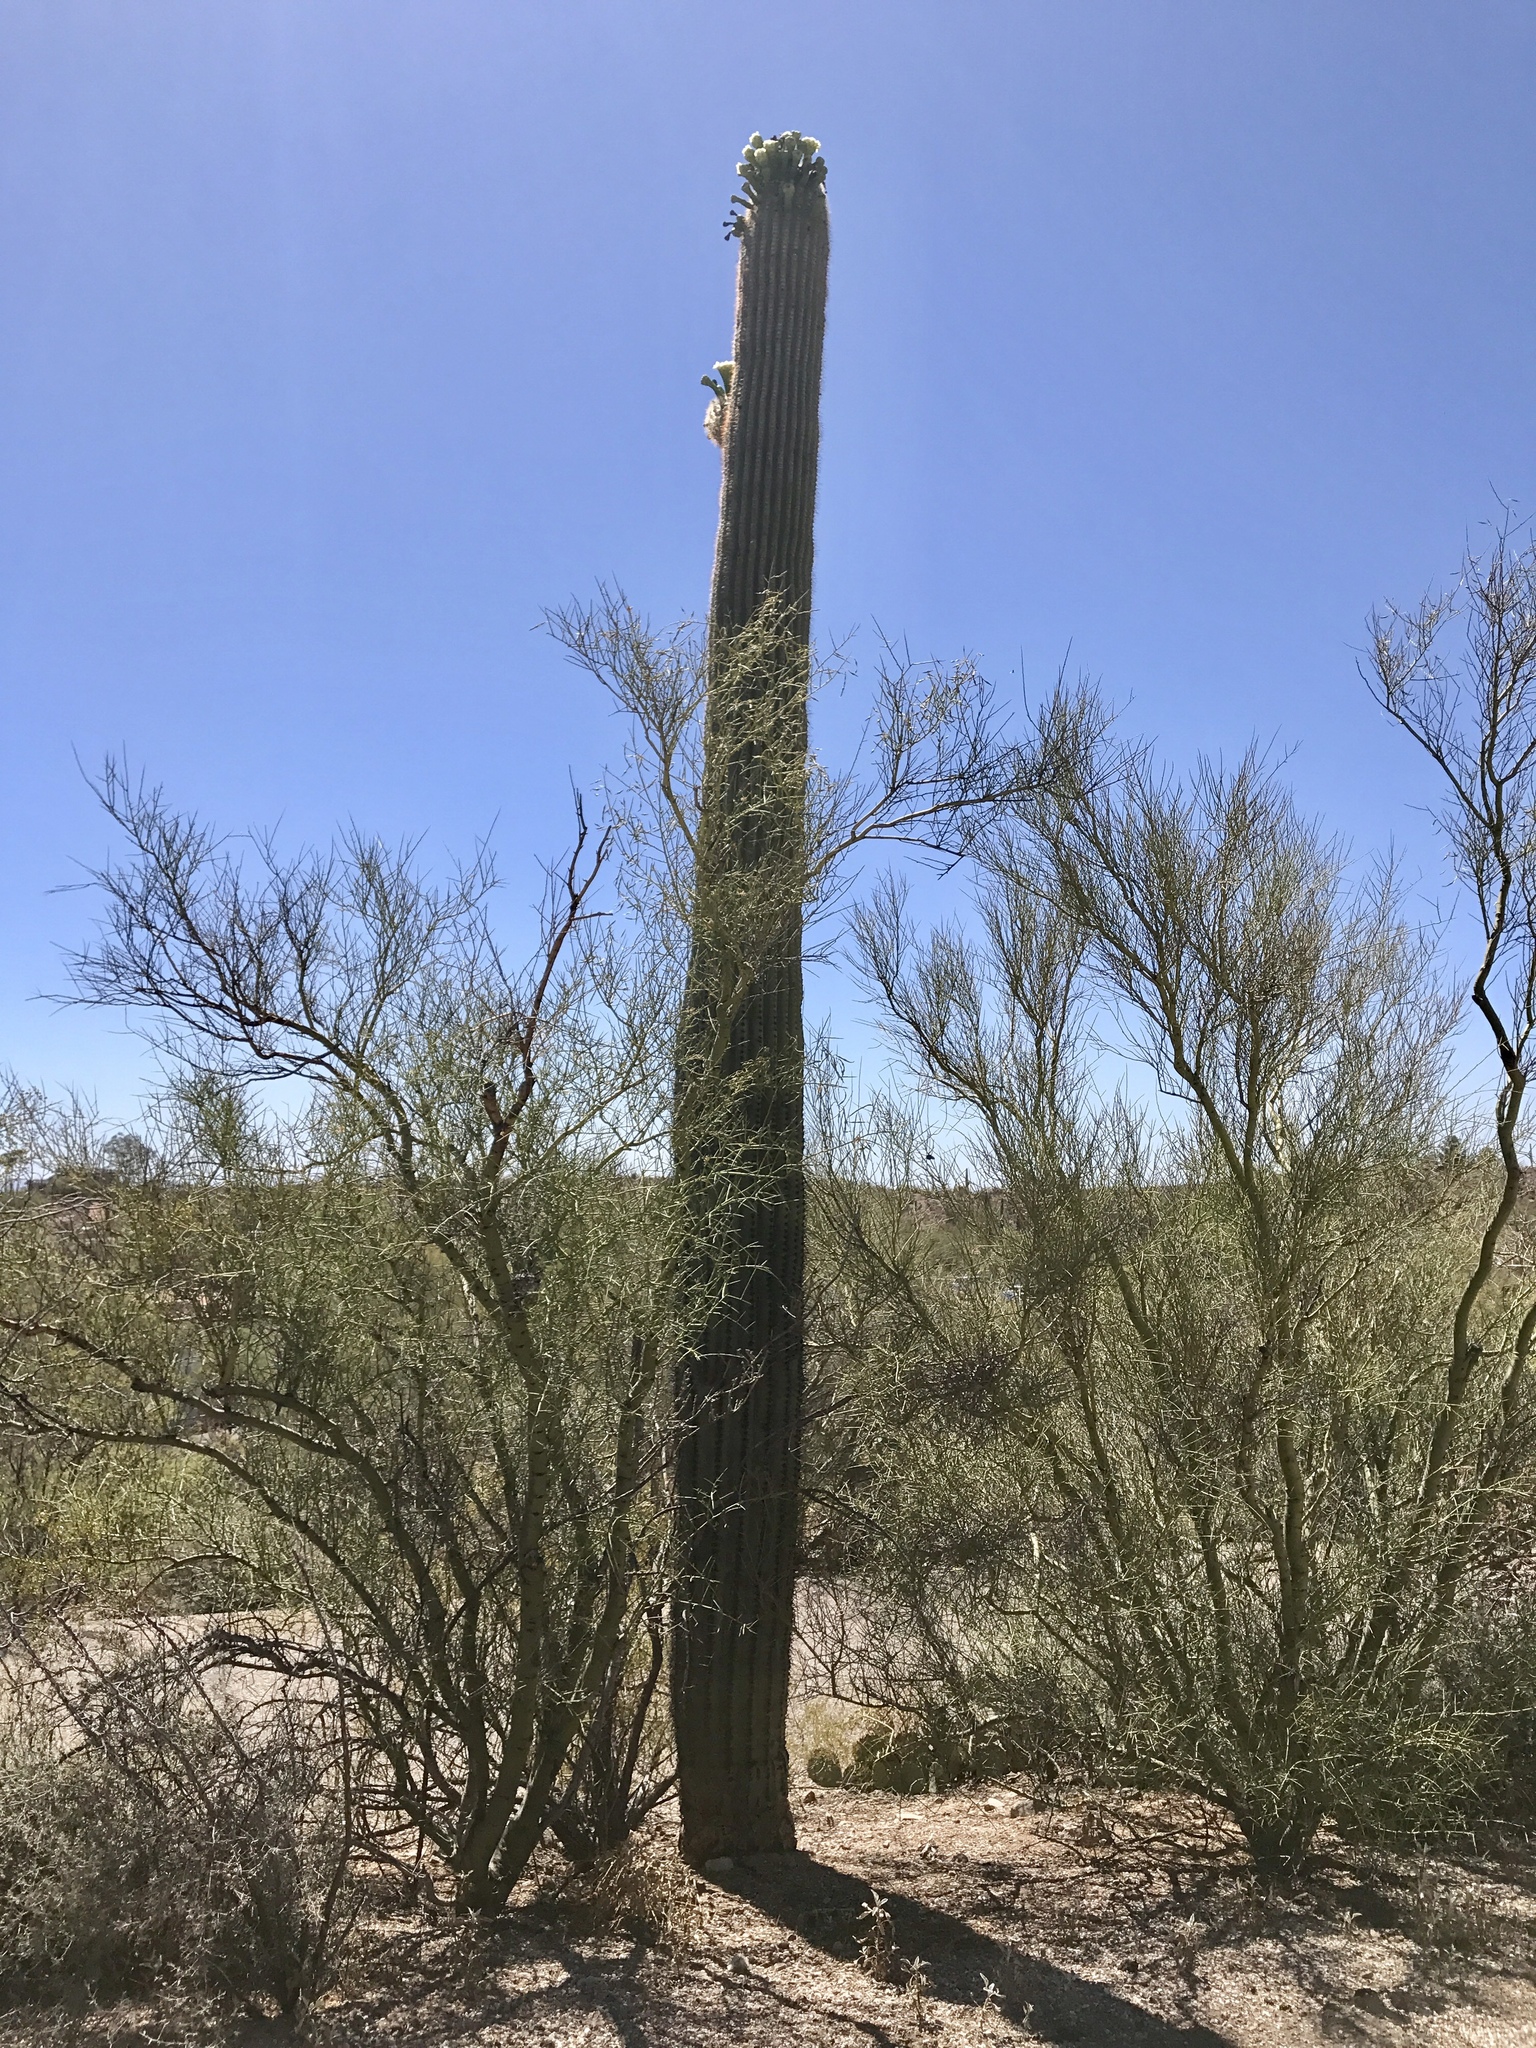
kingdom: Plantae
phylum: Tracheophyta
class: Magnoliopsida
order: Caryophyllales
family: Cactaceae
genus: Carnegiea
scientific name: Carnegiea gigantea
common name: Saguaro
